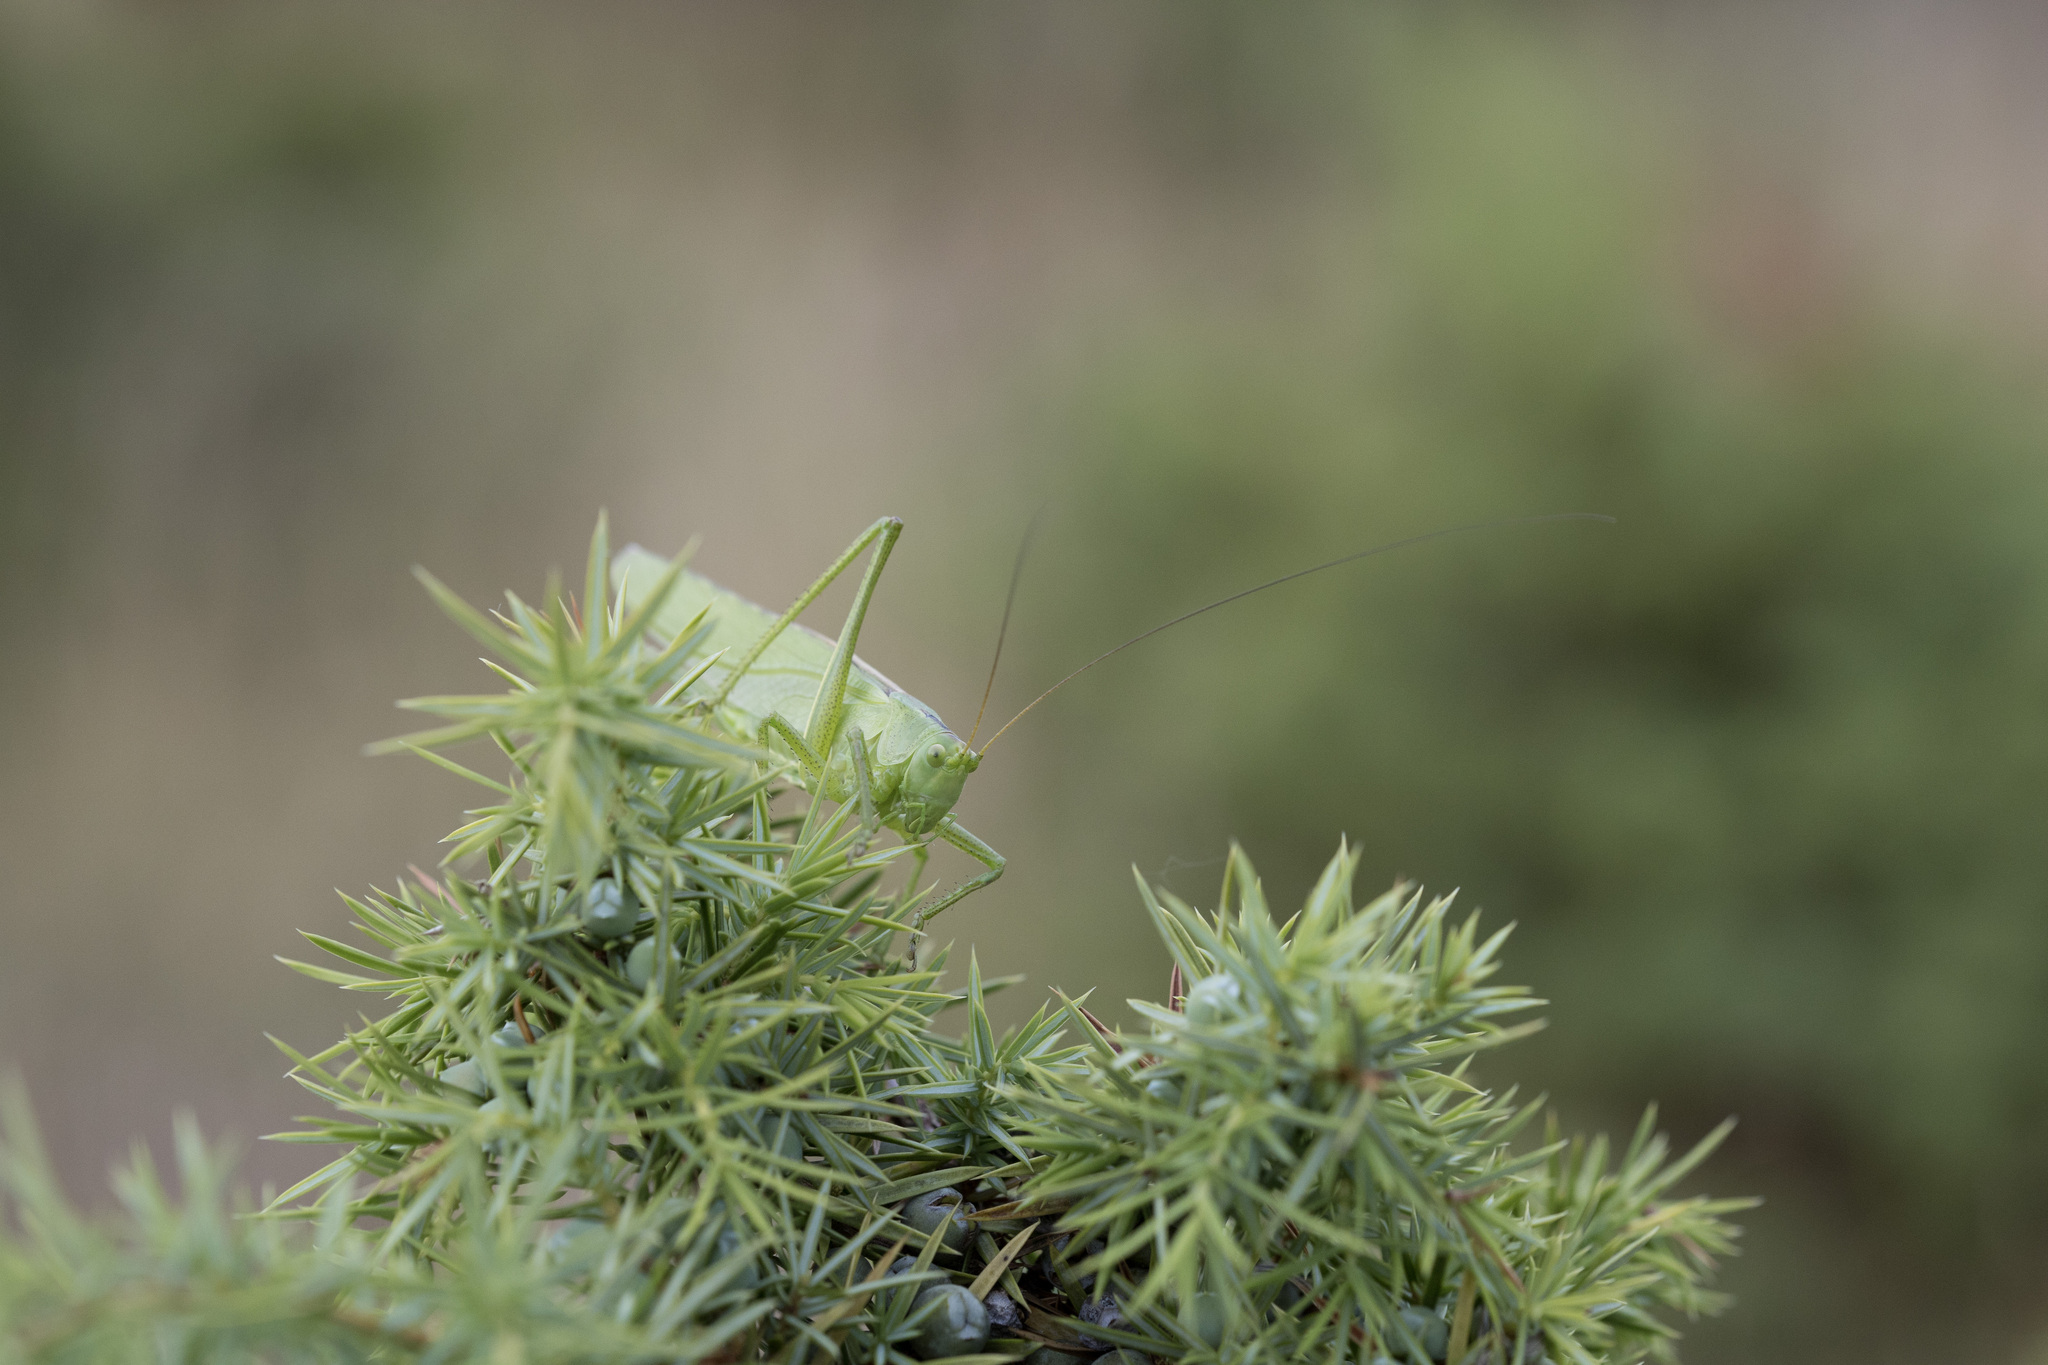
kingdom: Animalia
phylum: Arthropoda
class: Insecta
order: Orthoptera
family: Tettigoniidae
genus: Tettigonia
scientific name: Tettigonia viridissima
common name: Great green bush-cricket
